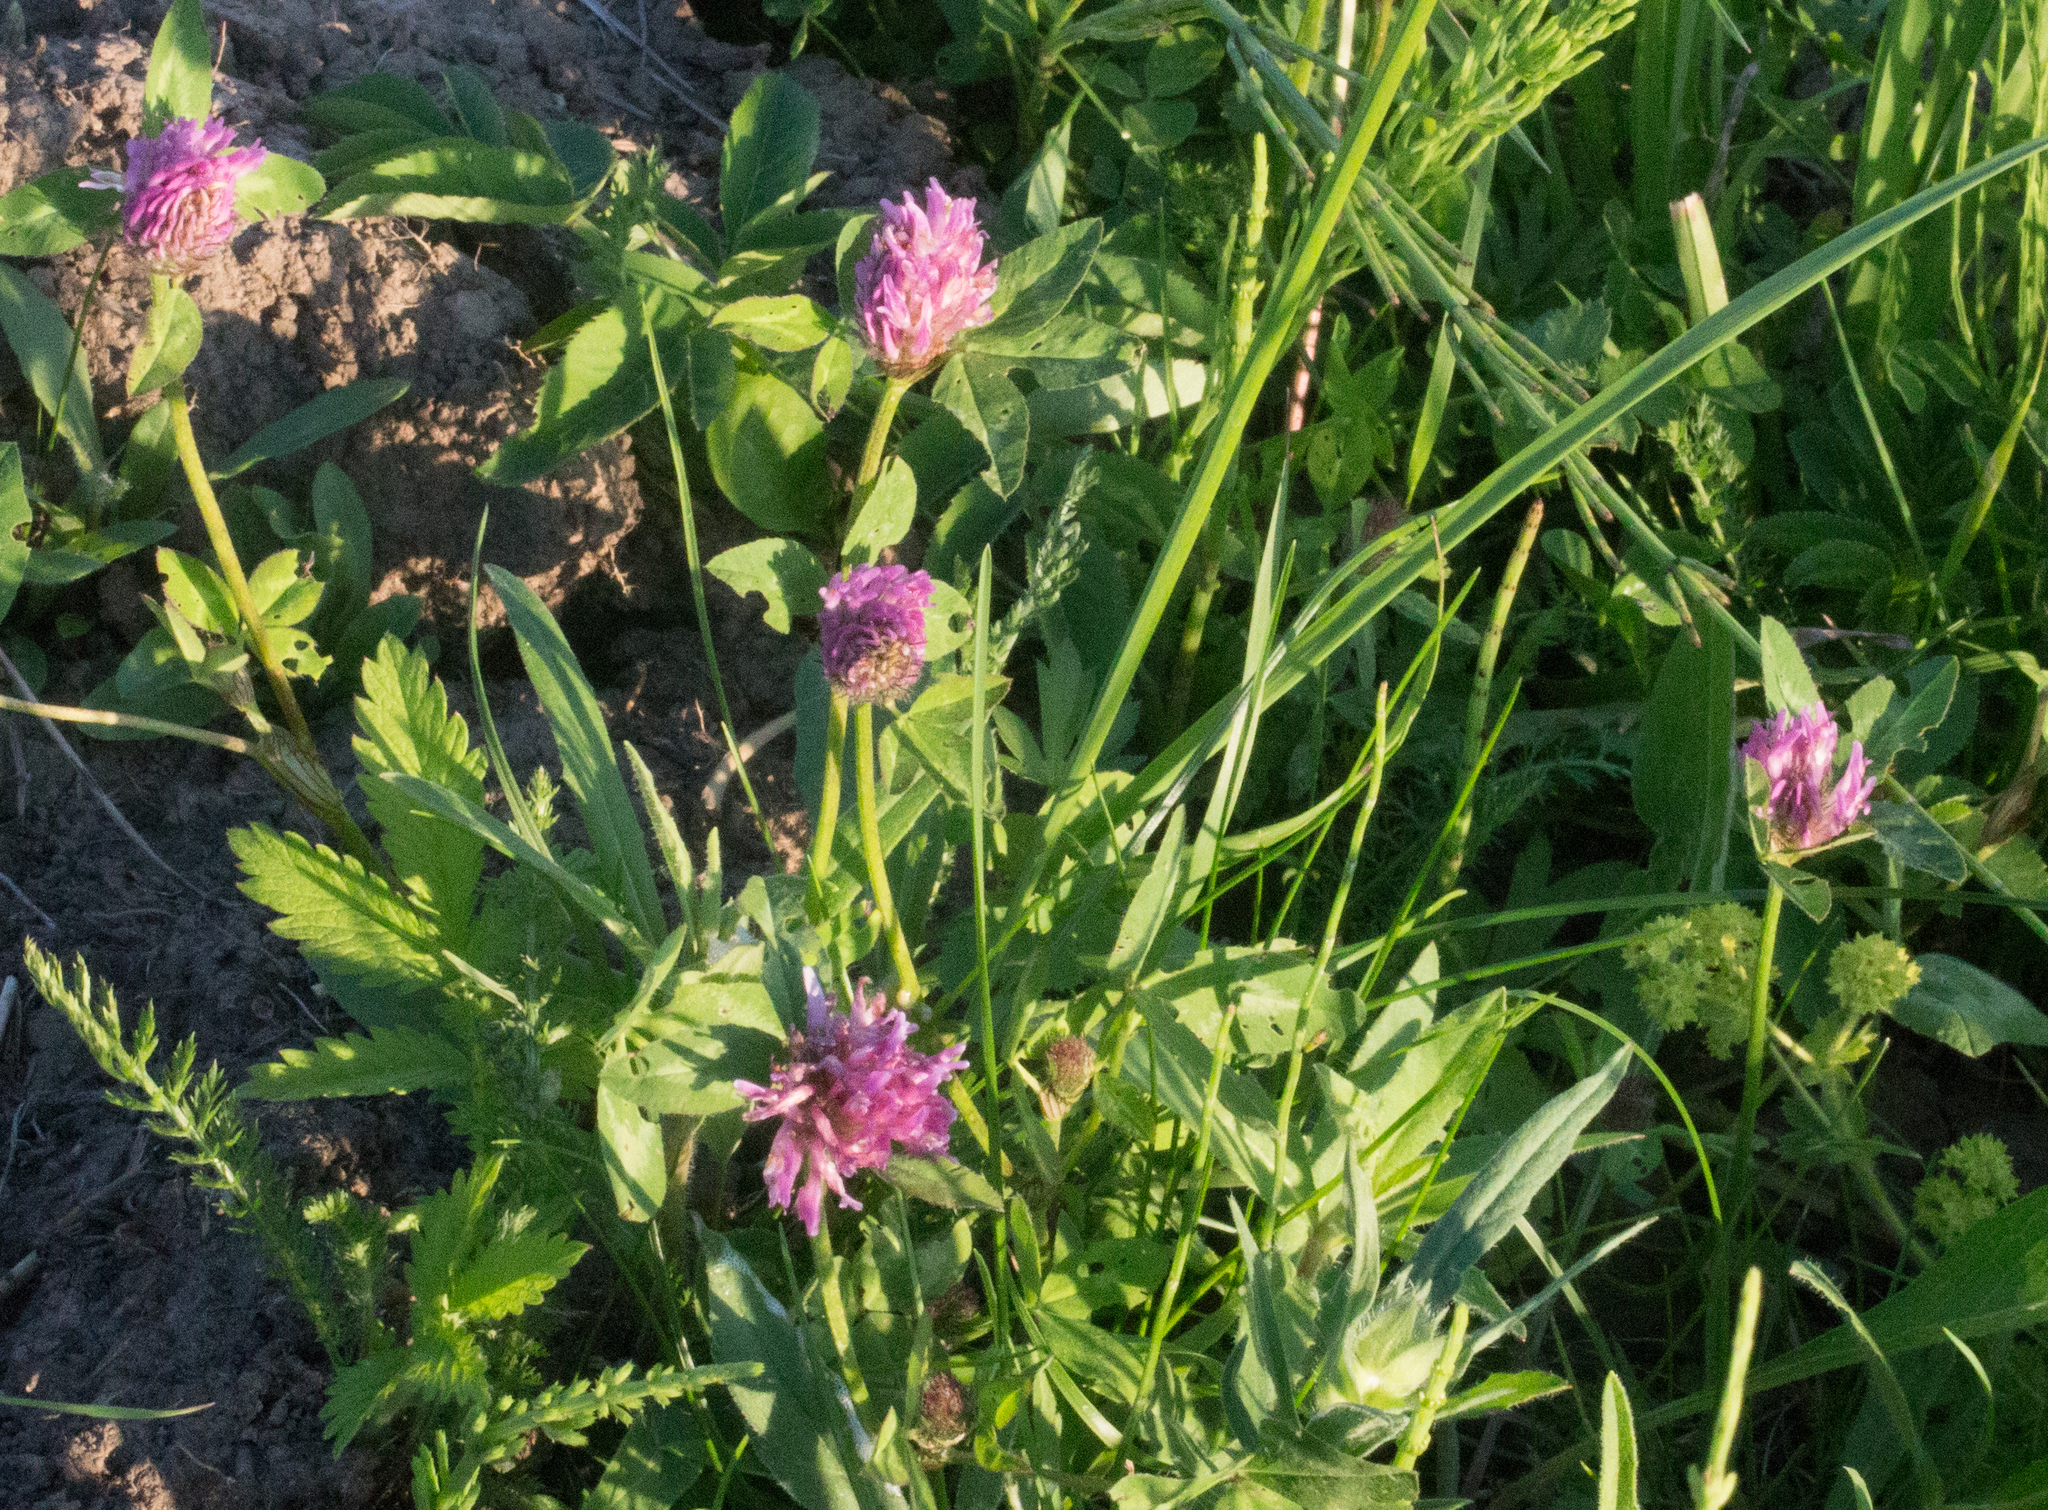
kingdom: Plantae
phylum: Tracheophyta
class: Magnoliopsida
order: Fabales
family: Fabaceae
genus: Trifolium
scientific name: Trifolium pratense
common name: Red clover
